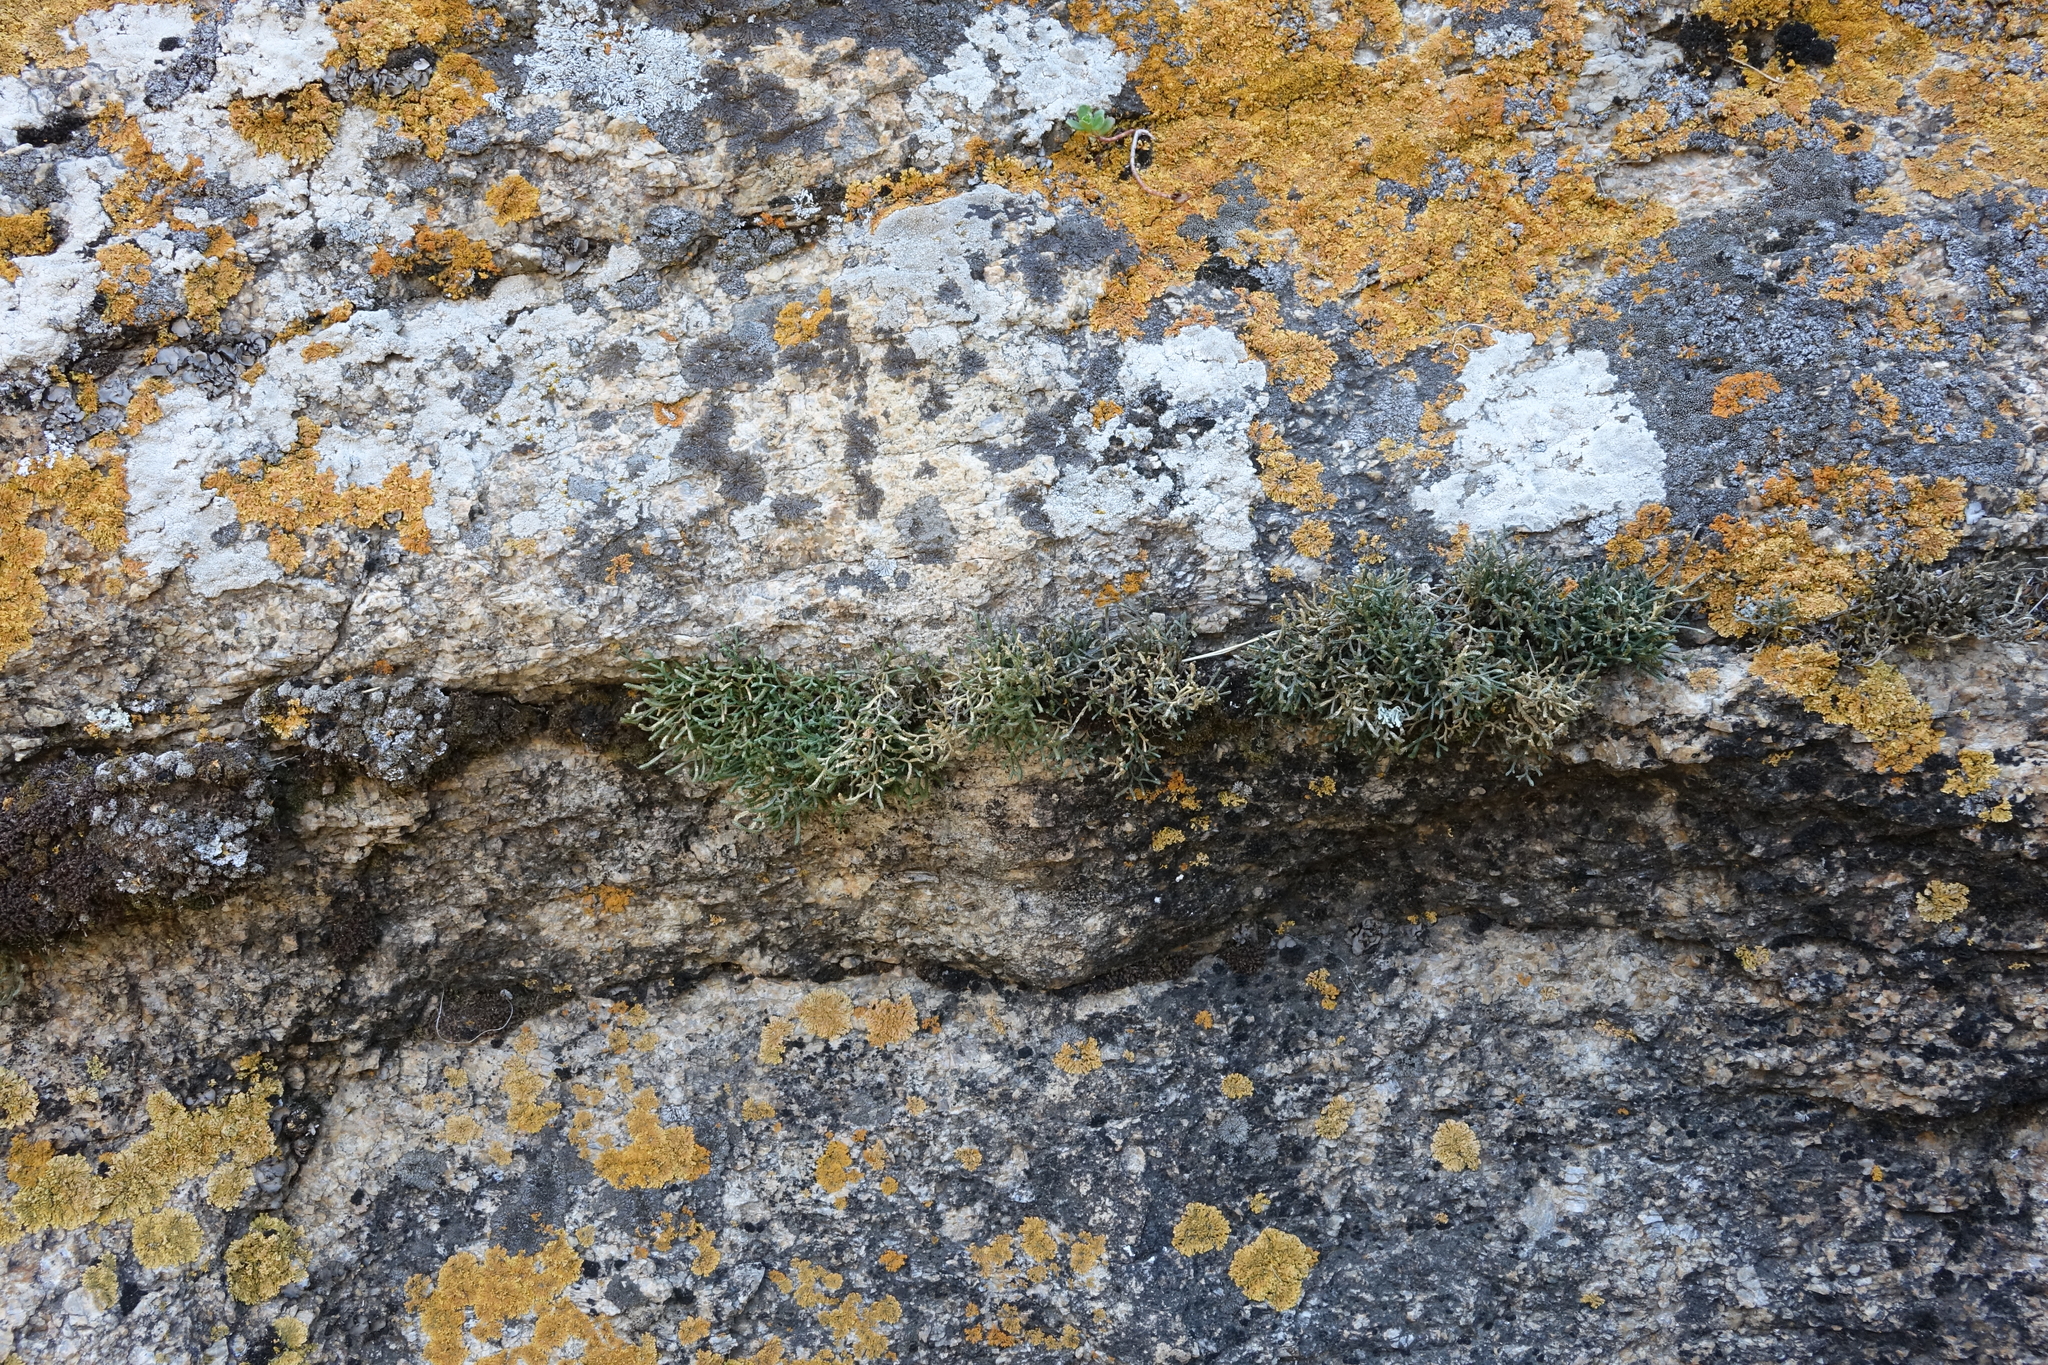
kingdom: Plantae
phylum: Tracheophyta
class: Lycopodiopsida
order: Selaginellales
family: Selaginellaceae
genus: Selaginella
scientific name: Selaginella sanguinolenta
